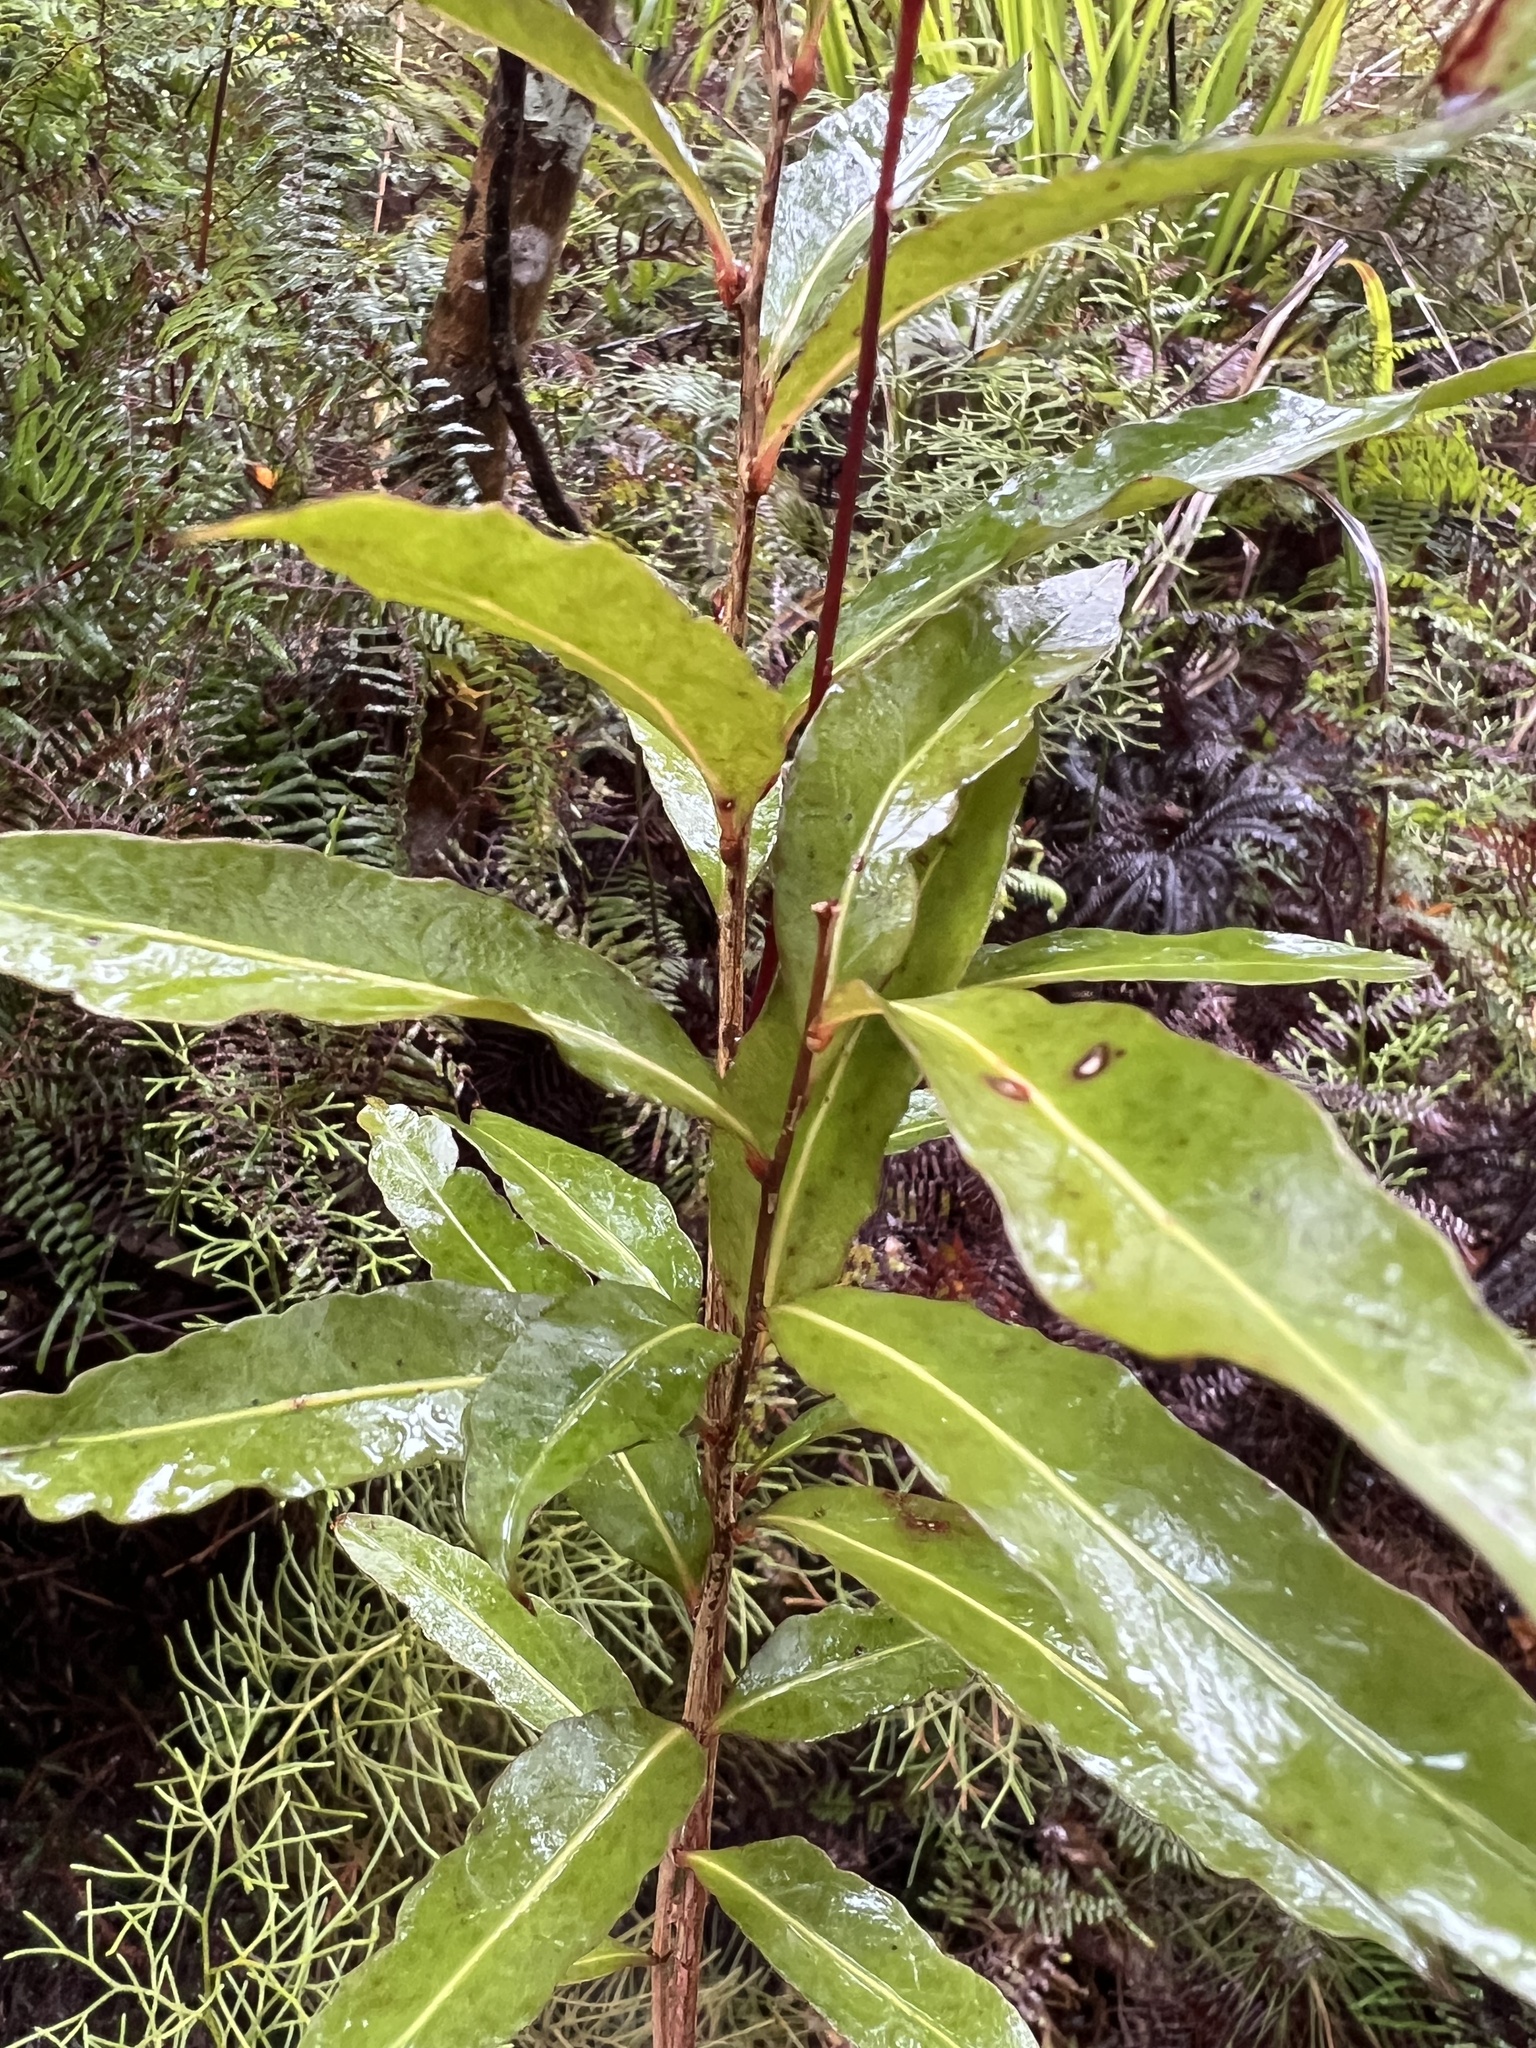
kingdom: Plantae
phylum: Tracheophyta
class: Magnoliopsida
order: Santalales
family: Nanodeaceae
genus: Mida
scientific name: Mida salicifolia
